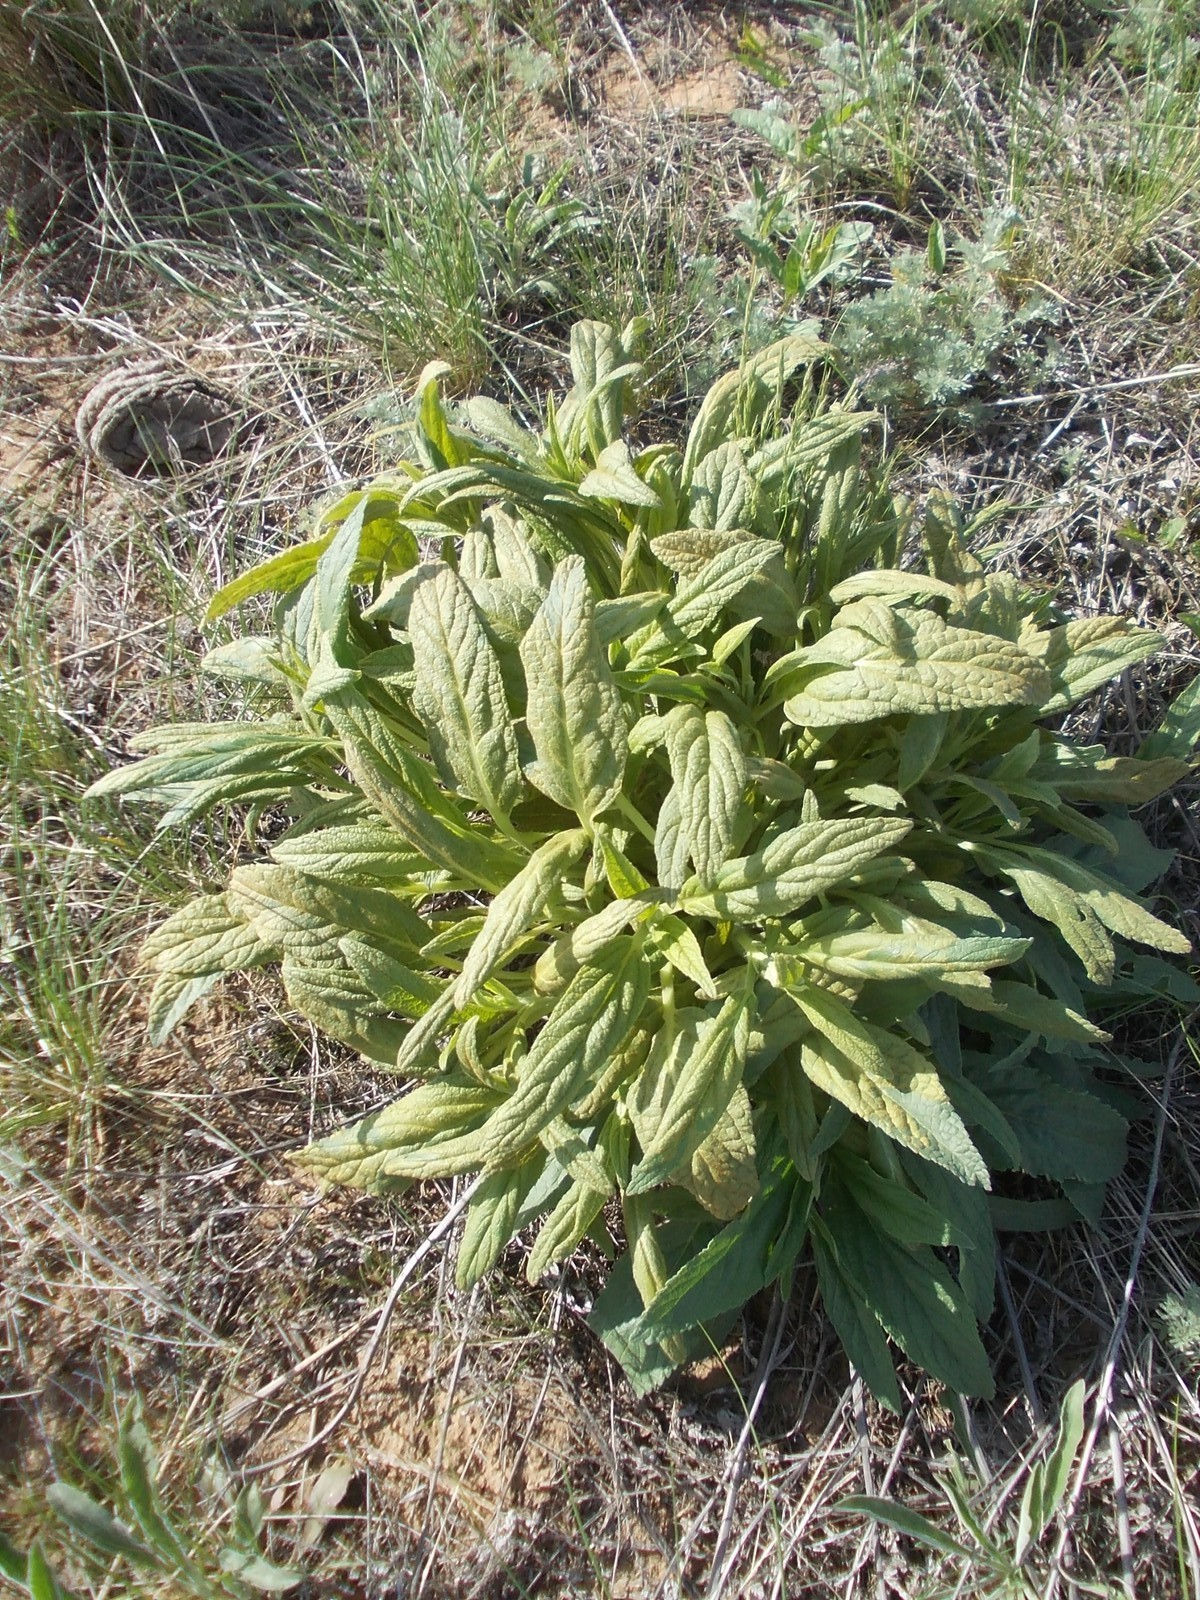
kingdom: Plantae
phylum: Tracheophyta
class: Magnoliopsida
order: Lamiales
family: Lamiaceae
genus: Salvia
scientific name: Salvia nemorosa
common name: Balkan clary
